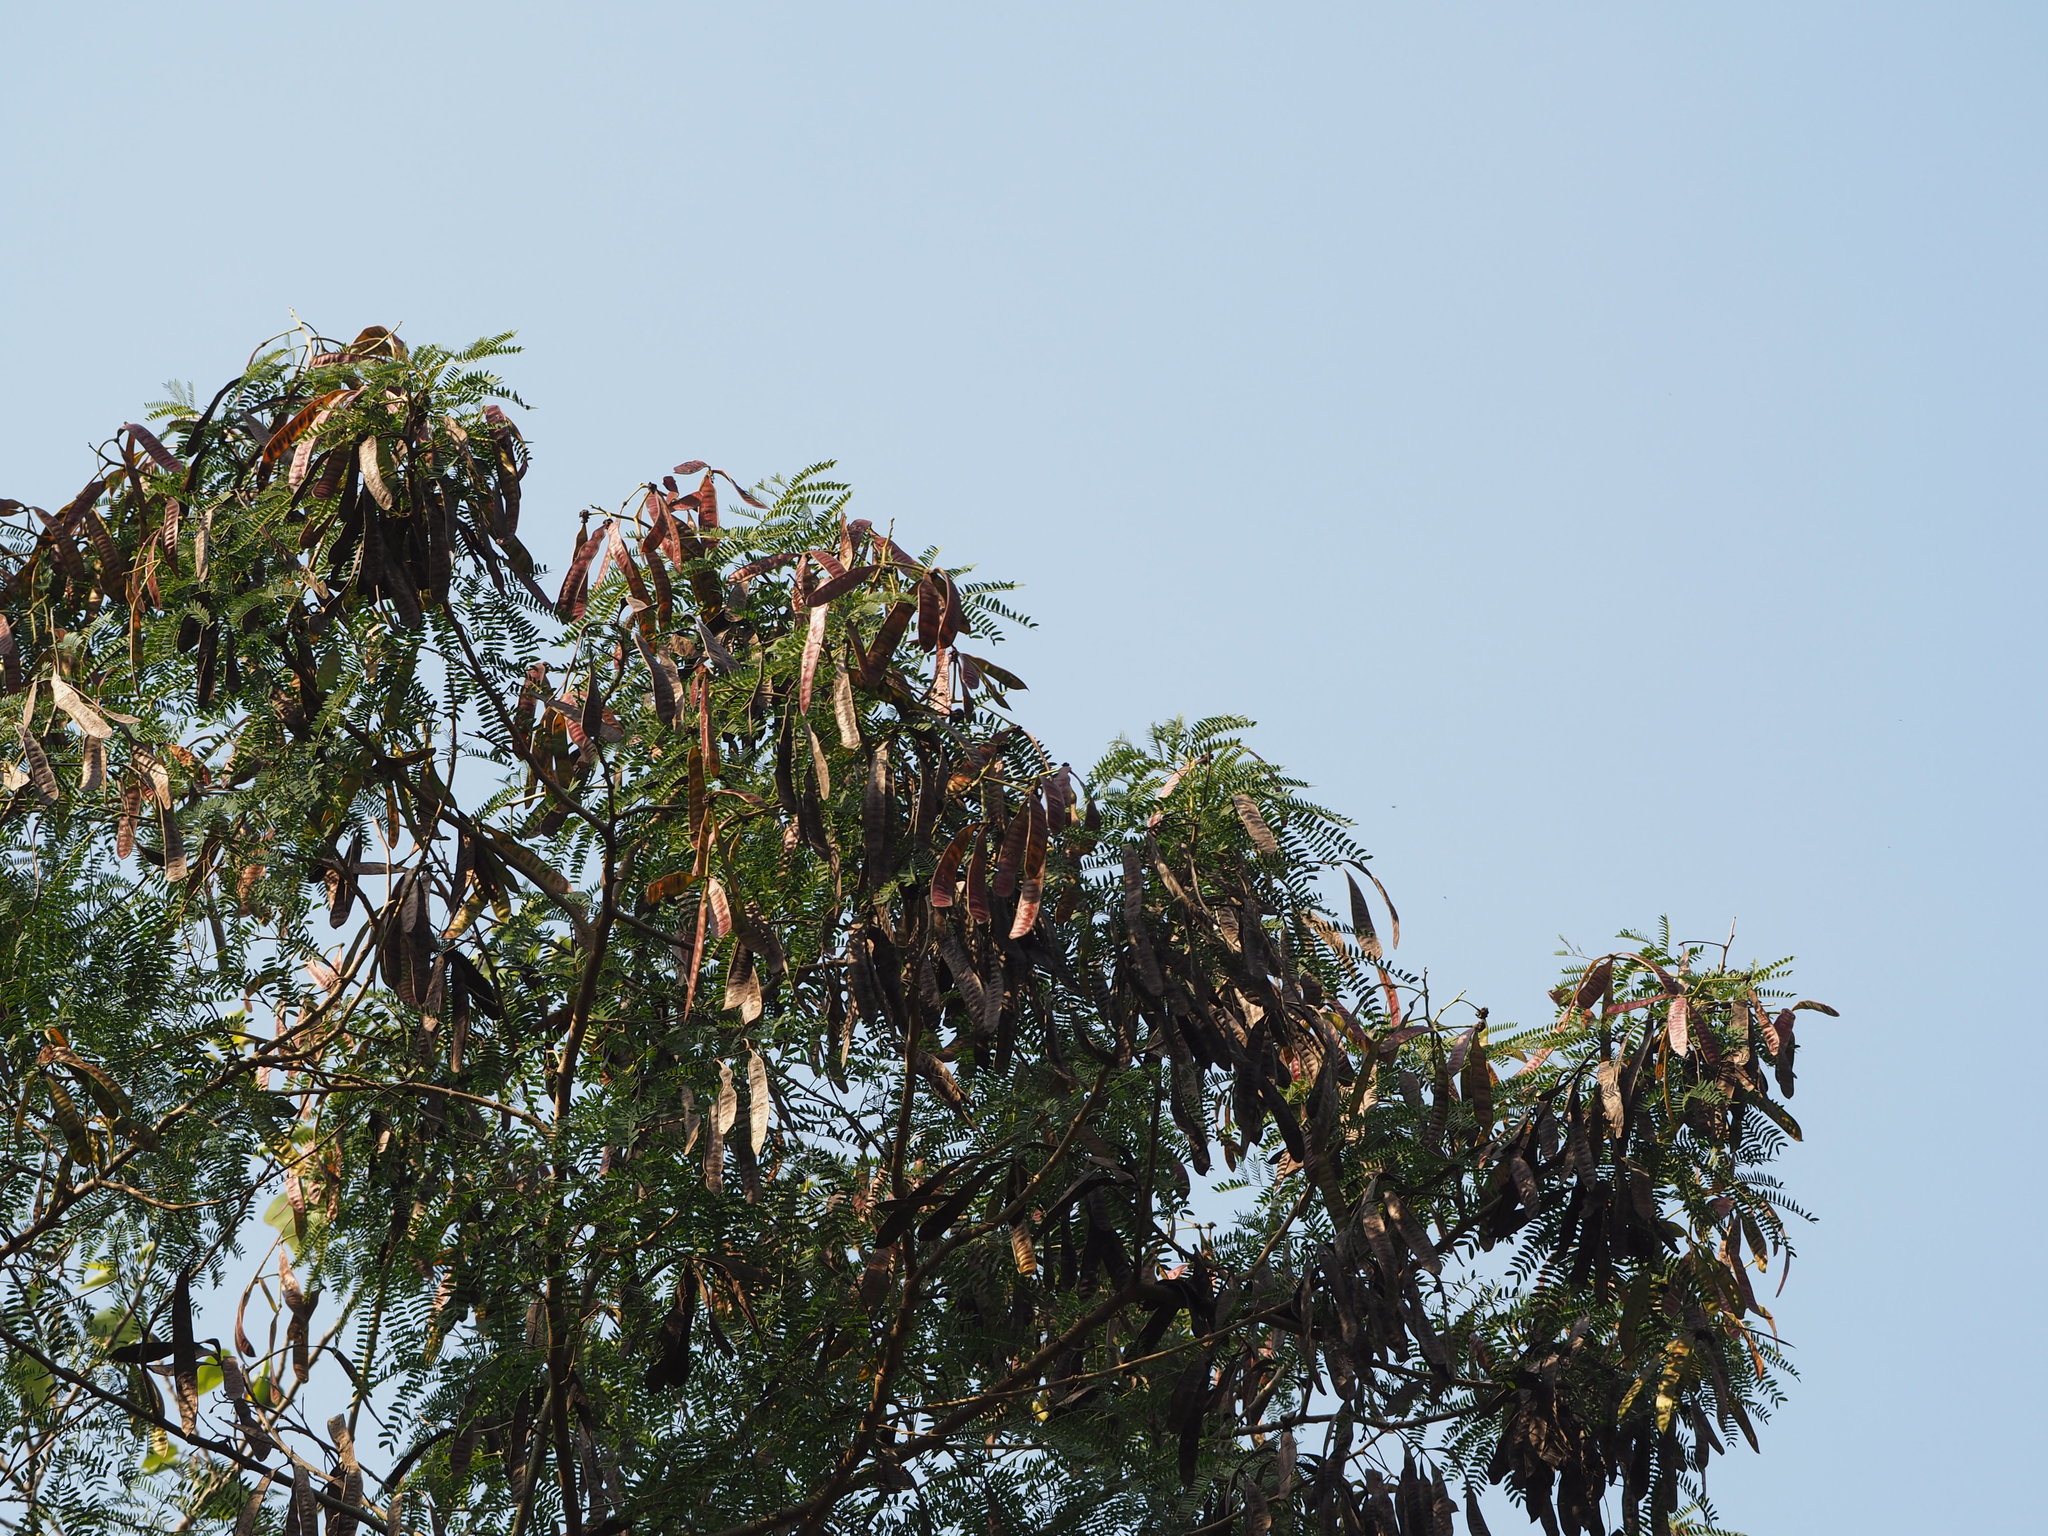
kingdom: Plantae
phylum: Tracheophyta
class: Magnoliopsida
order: Fabales
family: Fabaceae
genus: Leucaena
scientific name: Leucaena leucocephala
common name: White leadtree
